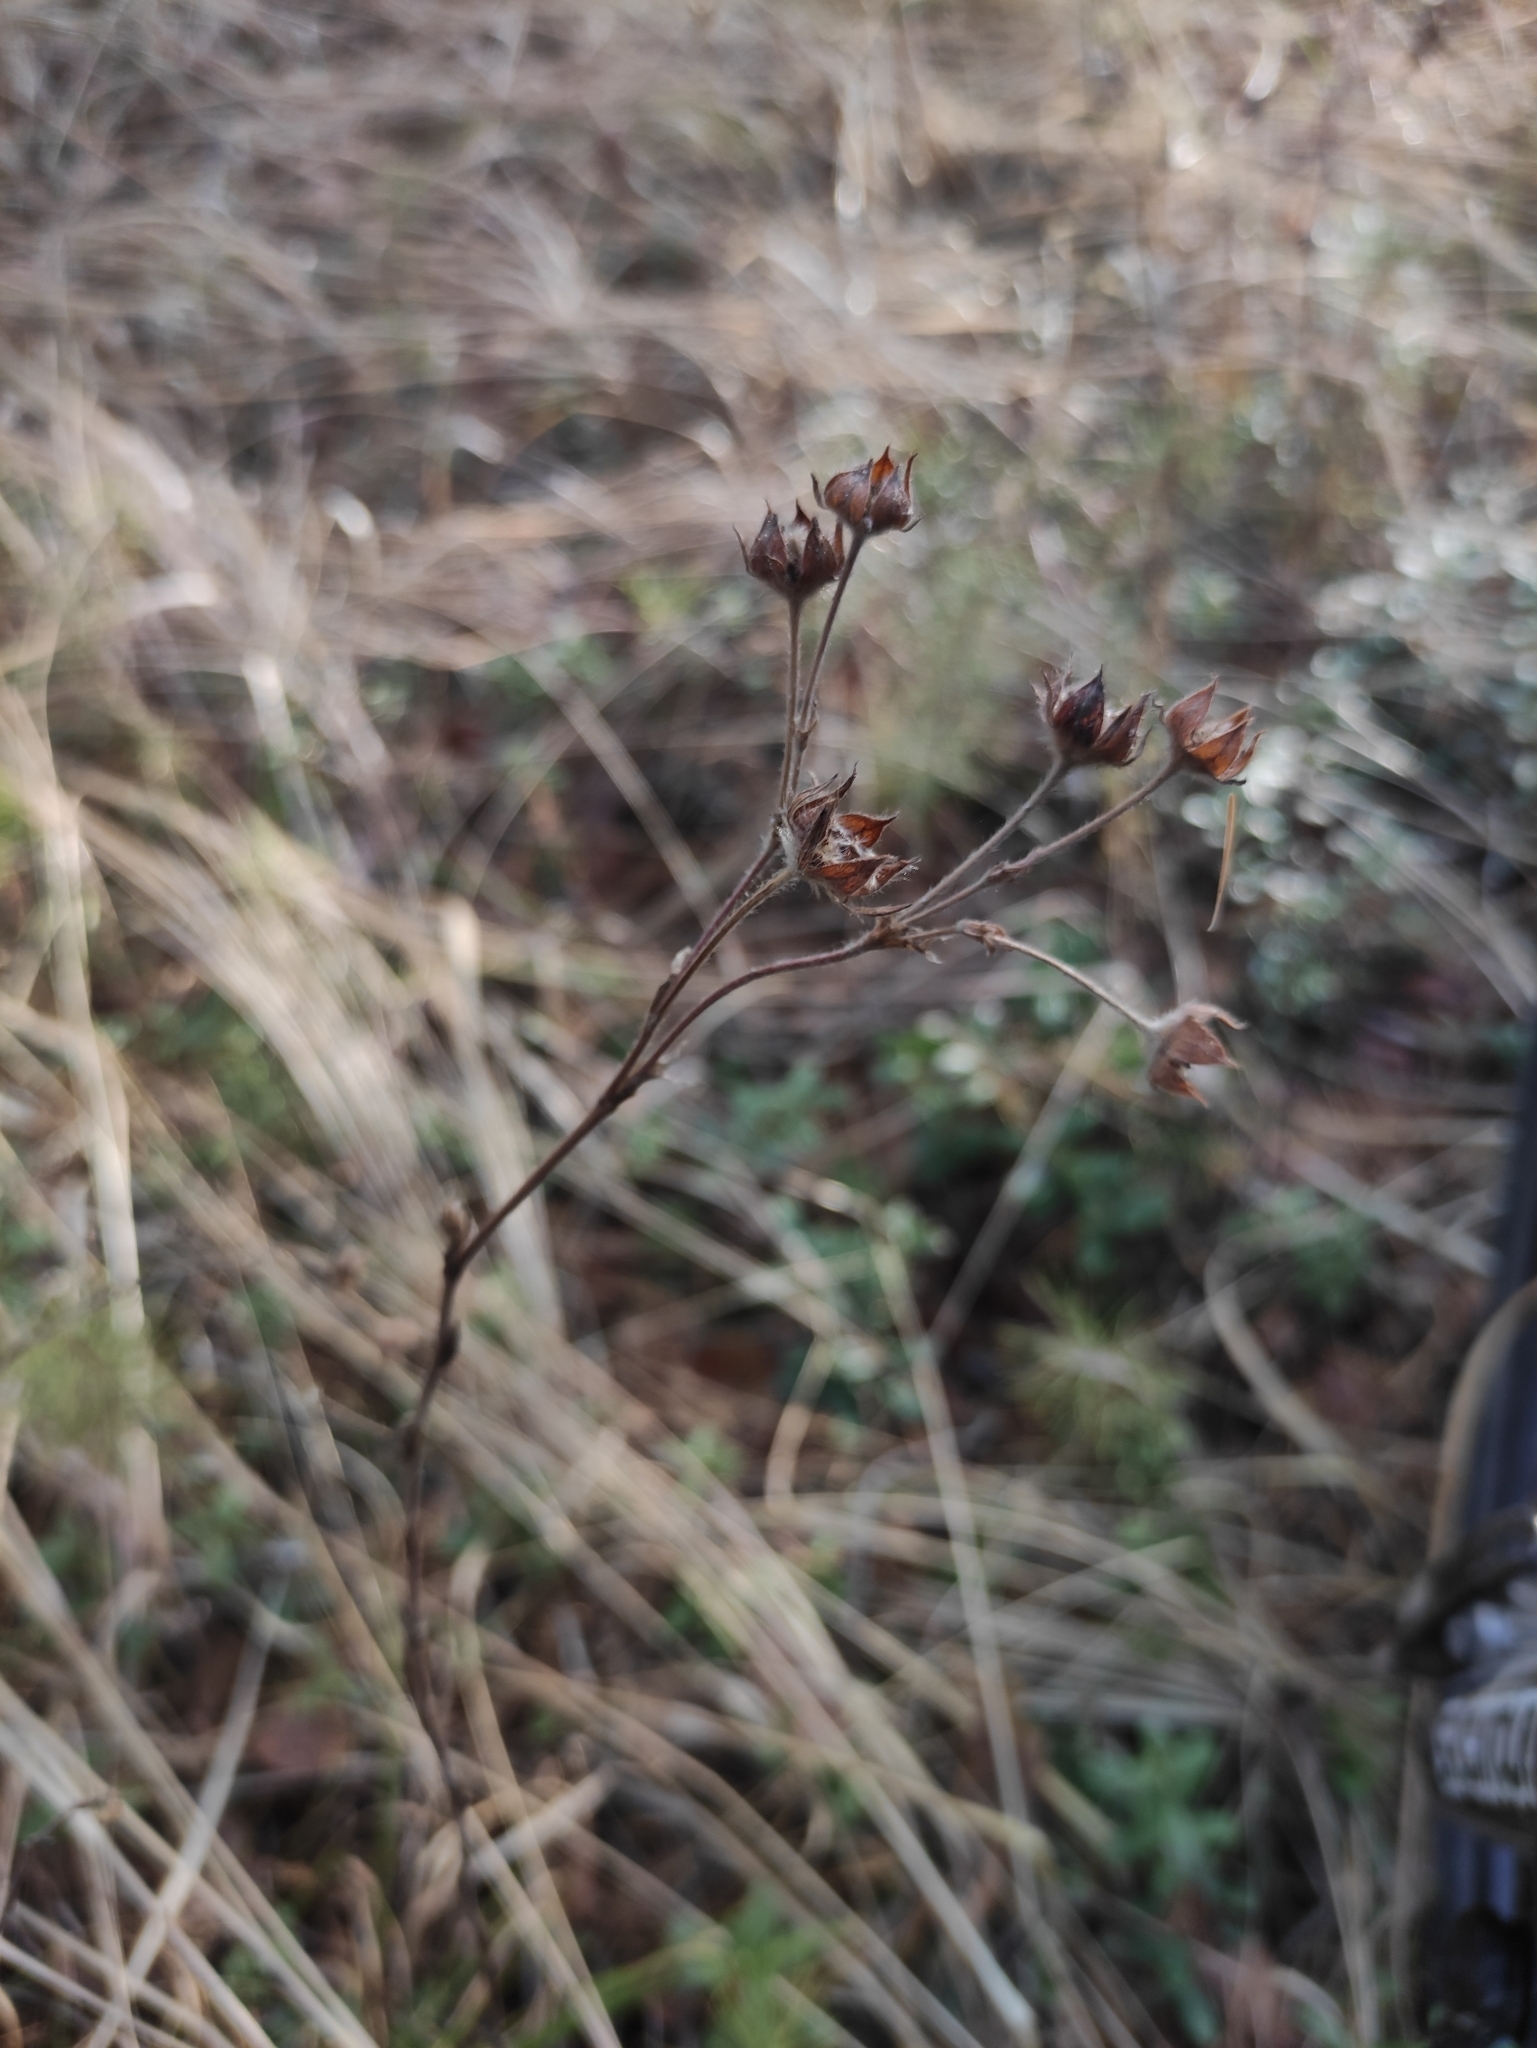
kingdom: Plantae
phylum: Tracheophyta
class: Magnoliopsida
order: Rosales
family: Rosaceae
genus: Dasiphora
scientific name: Dasiphora fruticosa
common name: Shrubby cinquefoil
